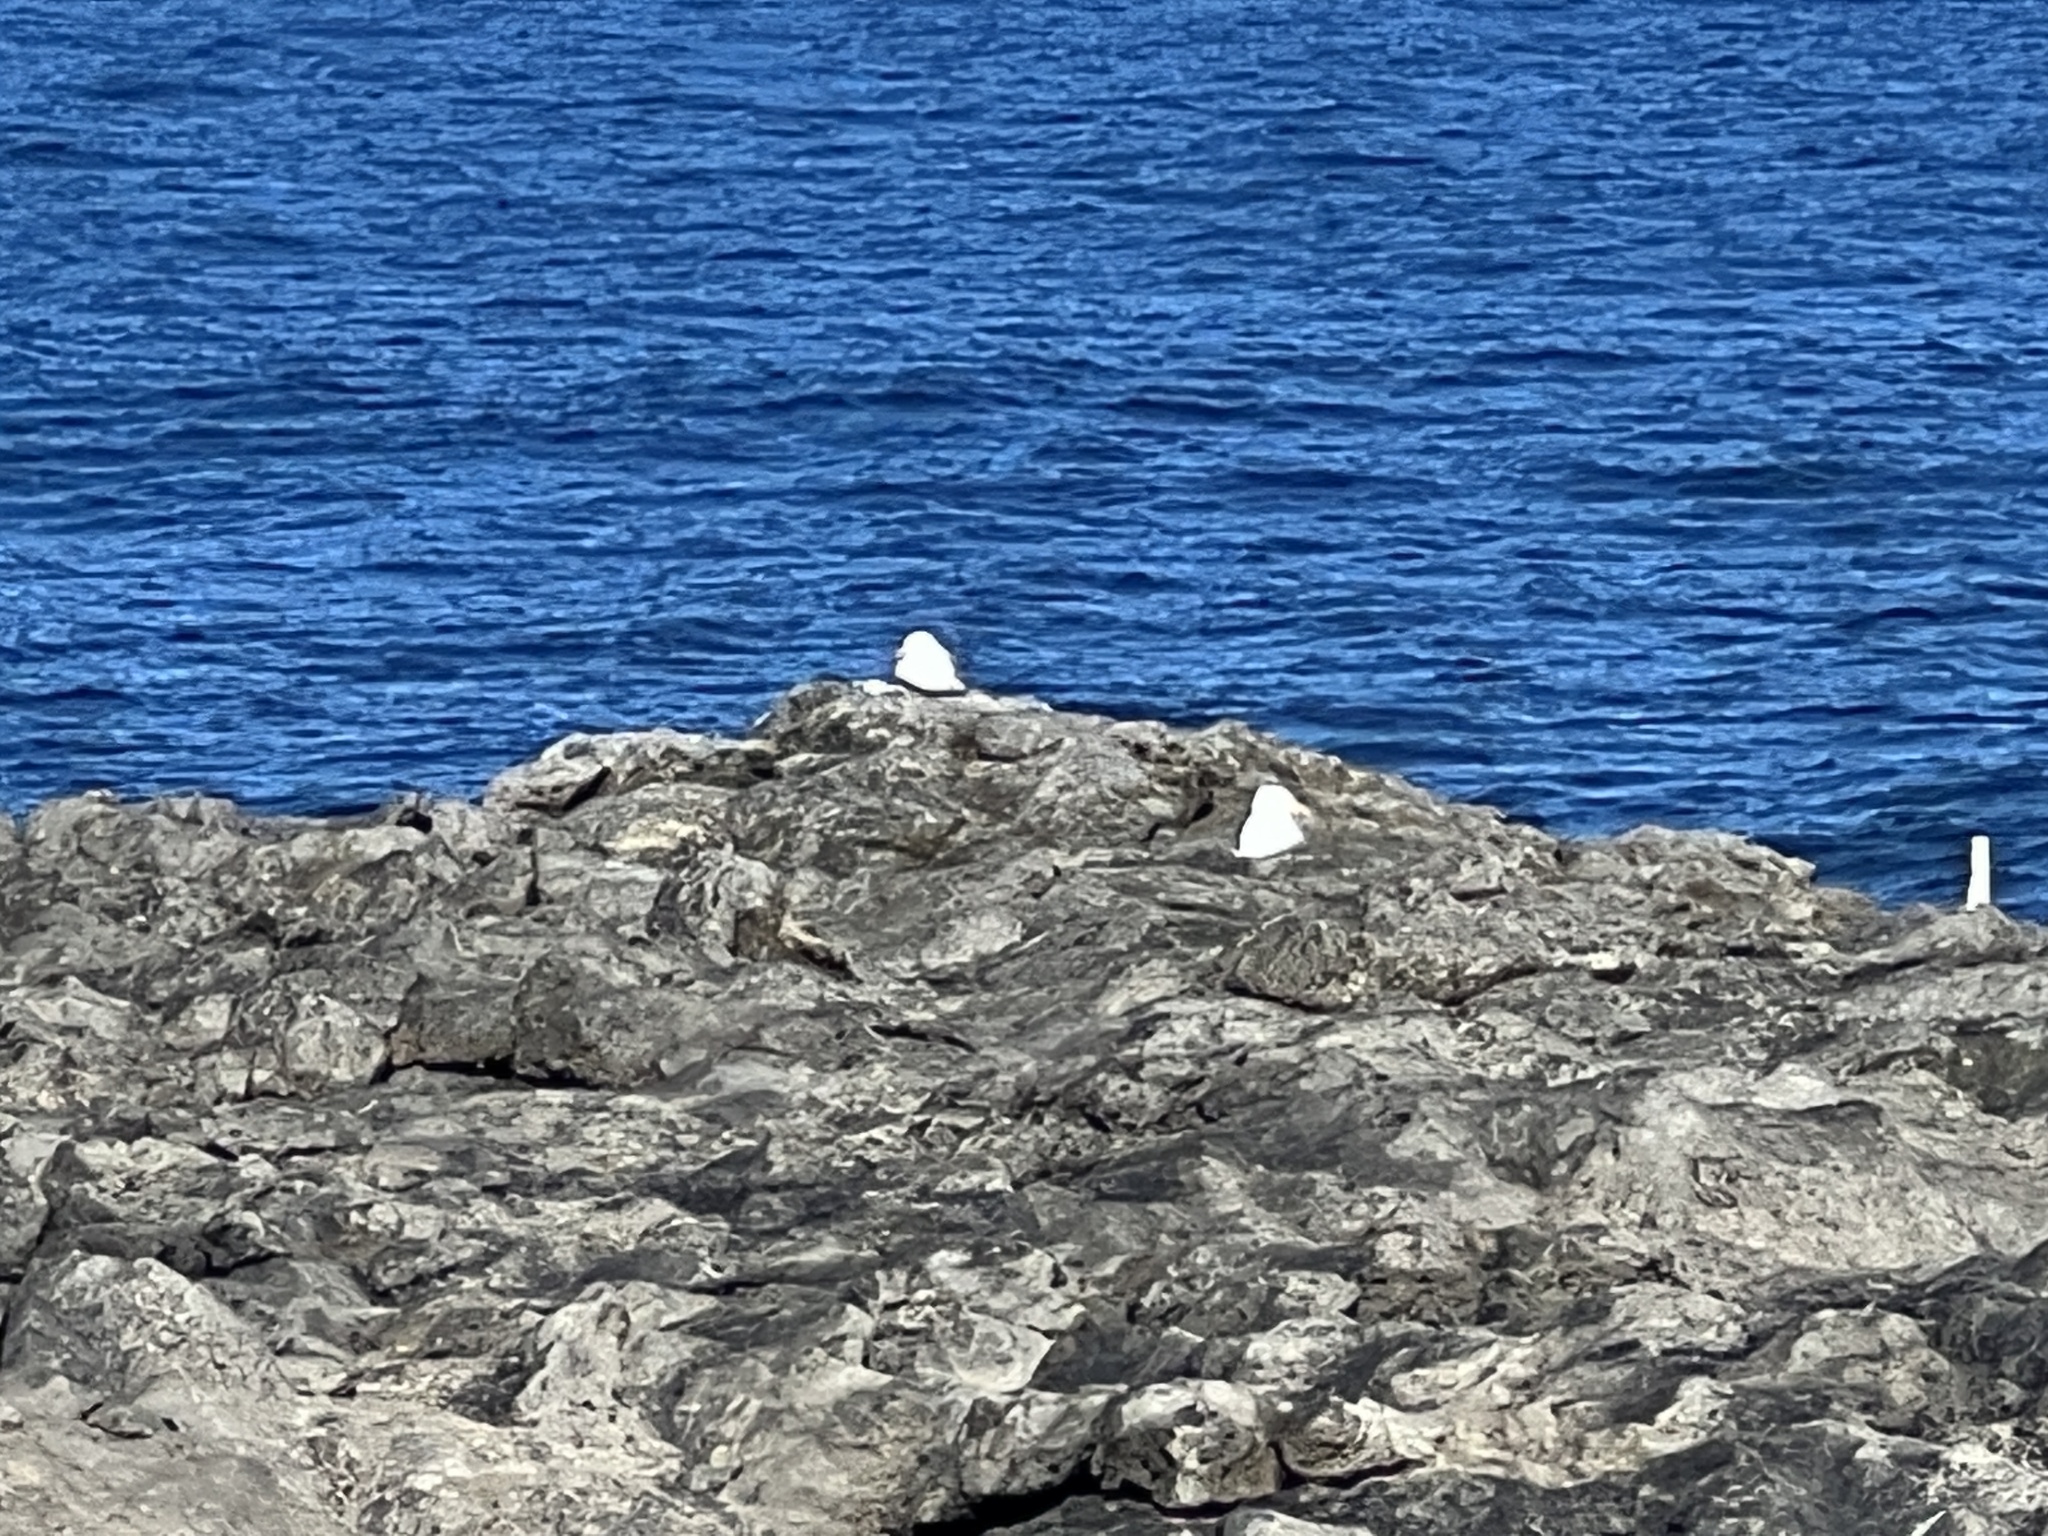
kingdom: Animalia
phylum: Chordata
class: Aves
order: Charadriiformes
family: Laridae
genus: Larus
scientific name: Larus michahellis
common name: Yellow-legged gull
